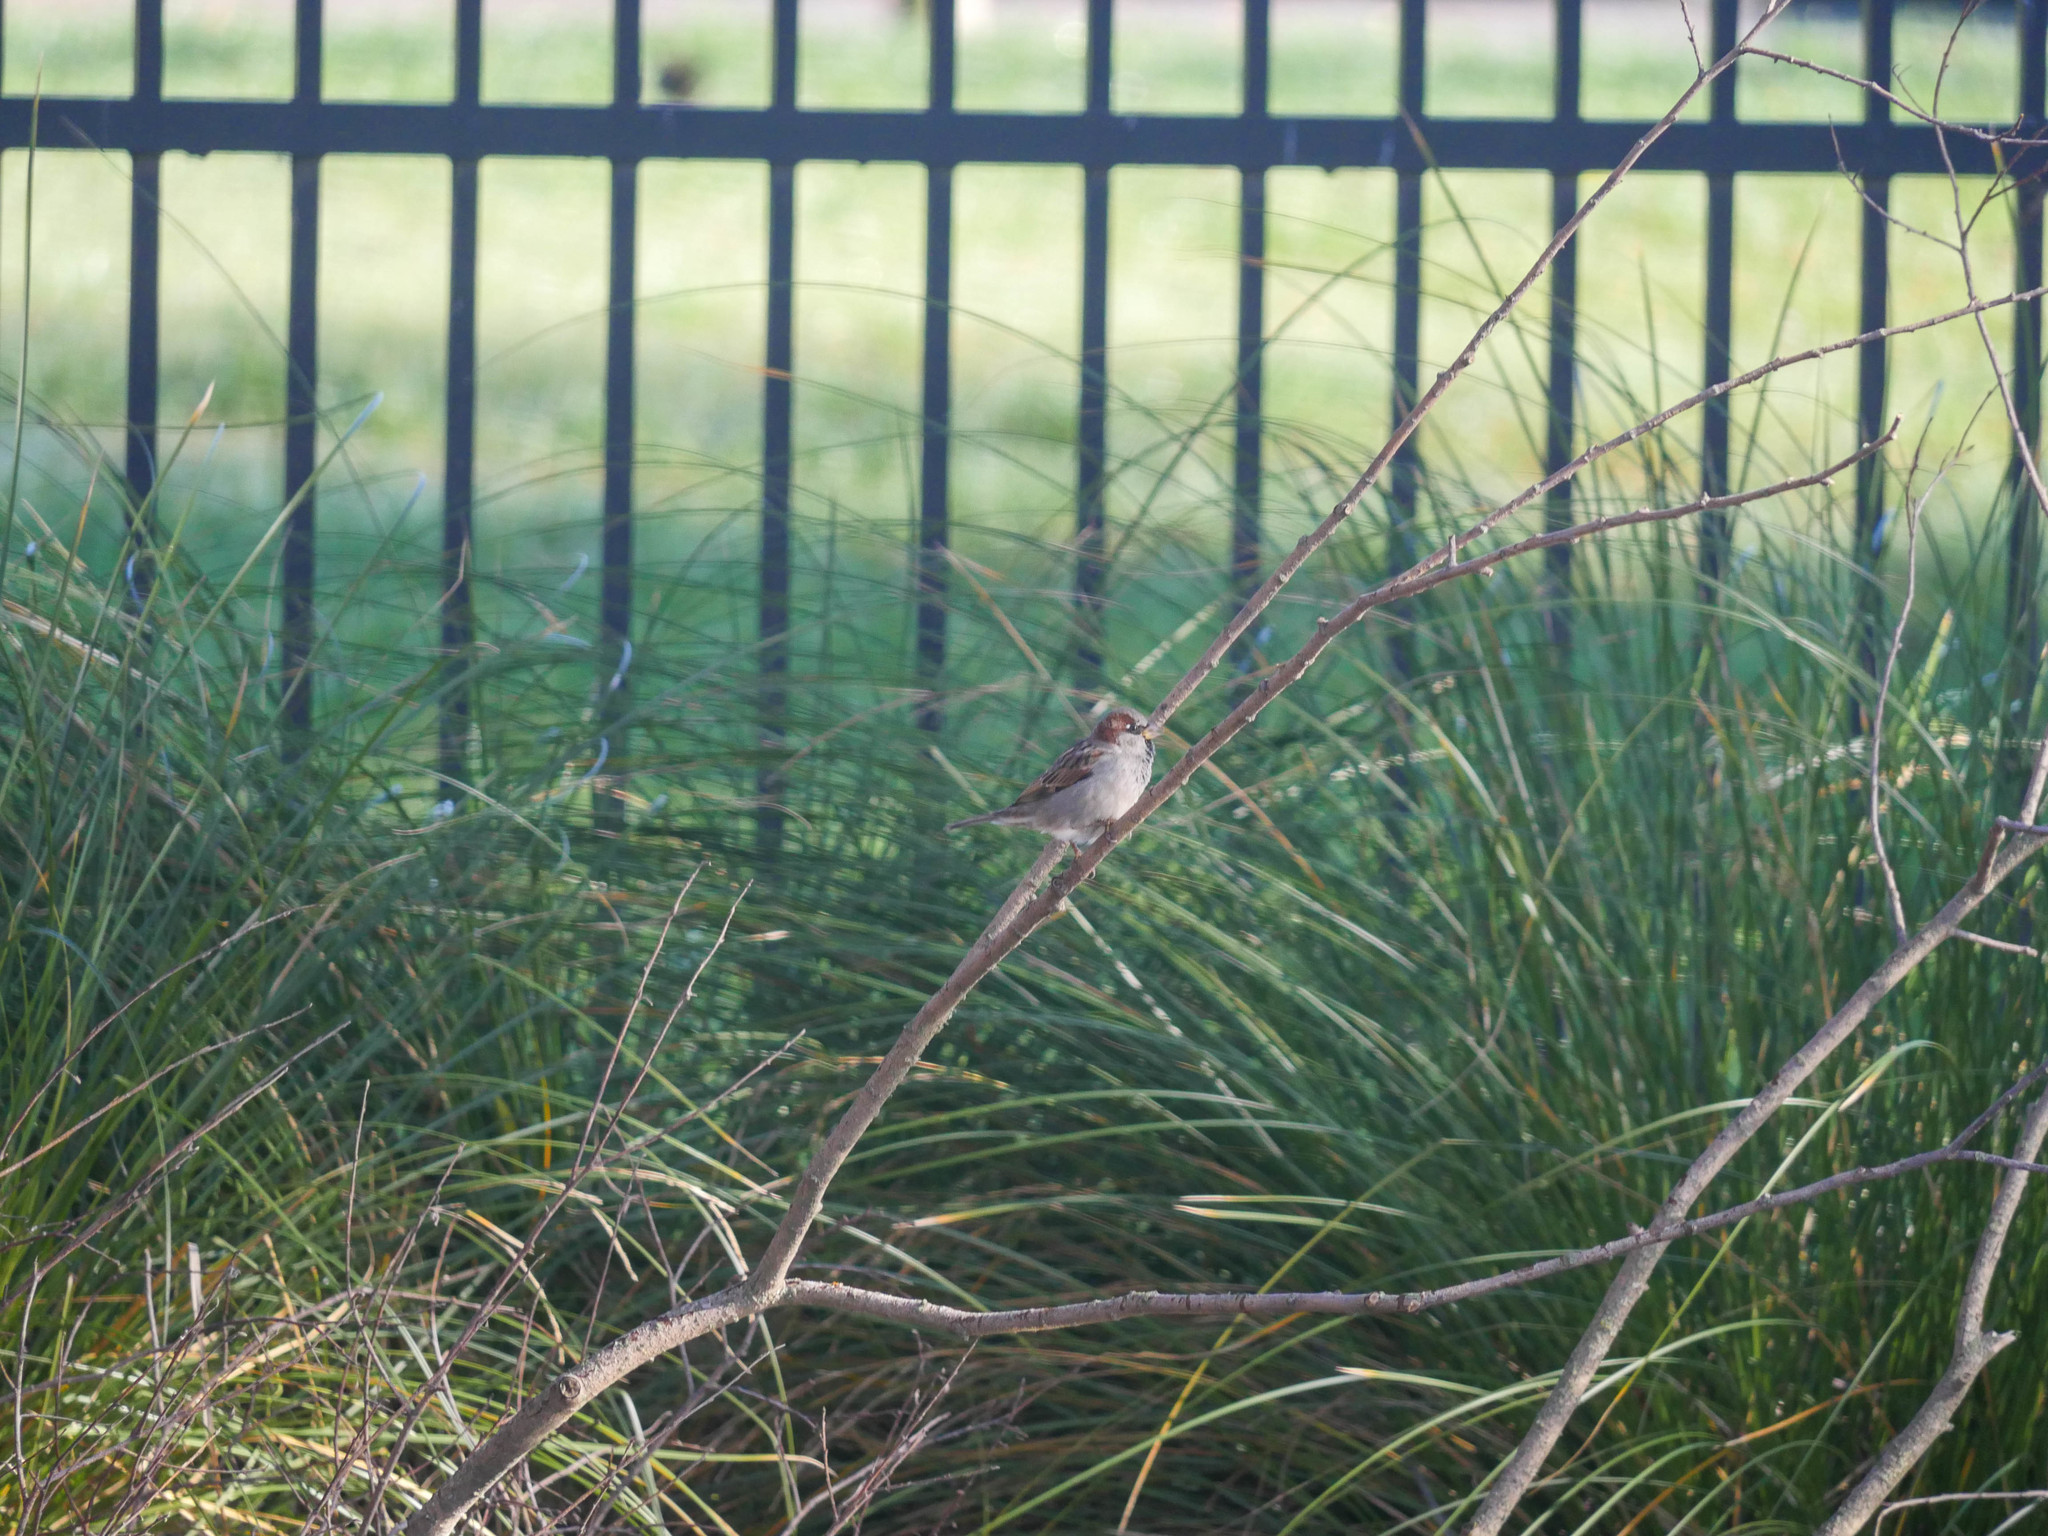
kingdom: Animalia
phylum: Chordata
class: Aves
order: Passeriformes
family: Passeridae
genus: Passer
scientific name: Passer domesticus
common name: House sparrow
